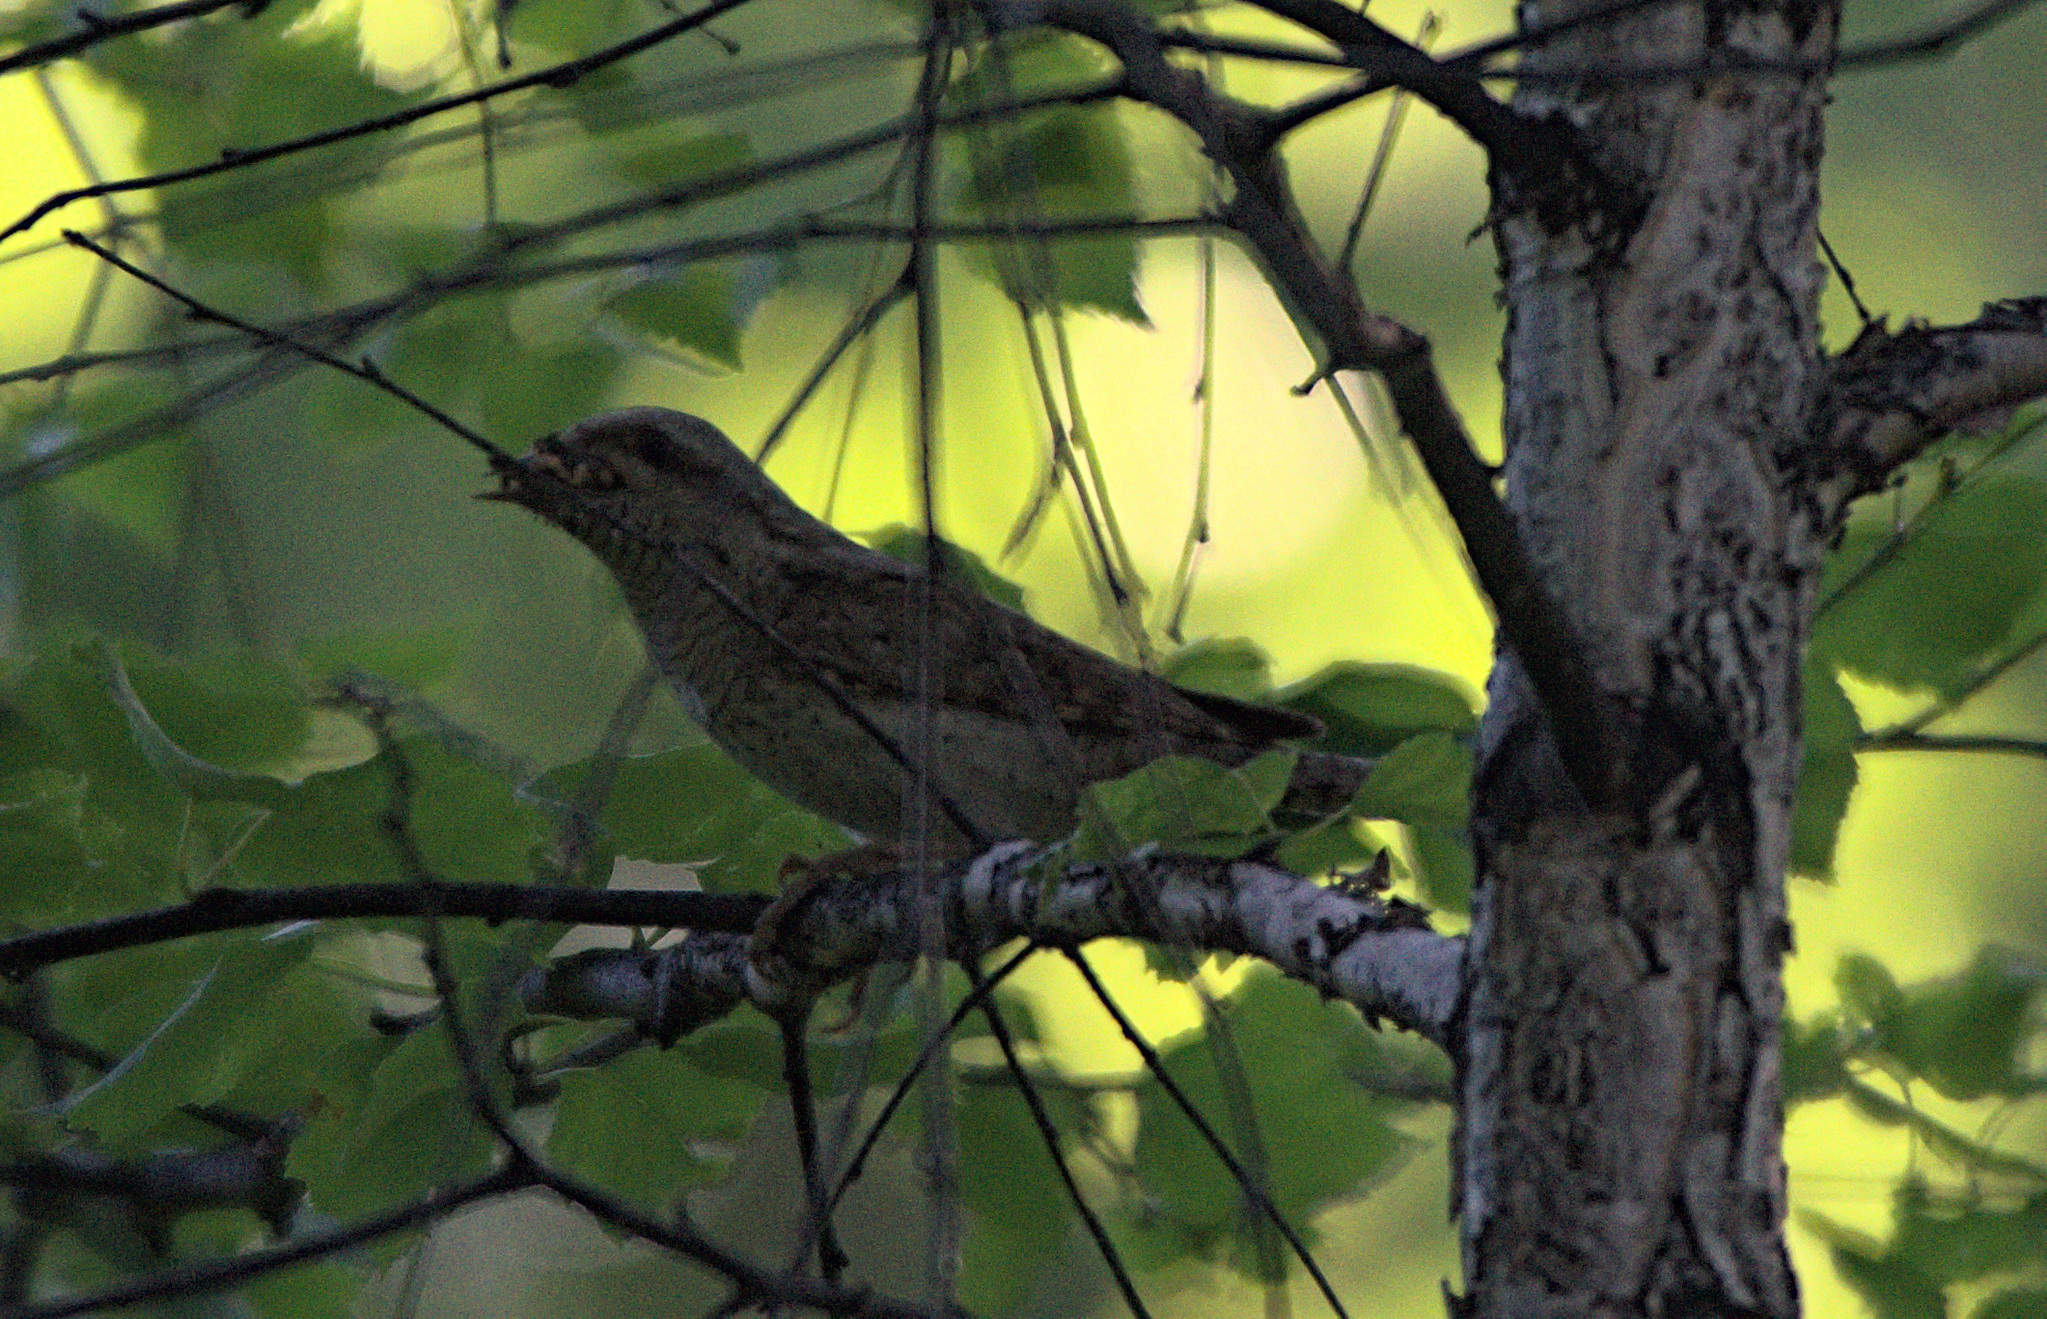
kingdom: Animalia
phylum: Chordata
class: Aves
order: Piciformes
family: Picidae
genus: Jynx
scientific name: Jynx torquilla
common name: Eurasian wryneck
